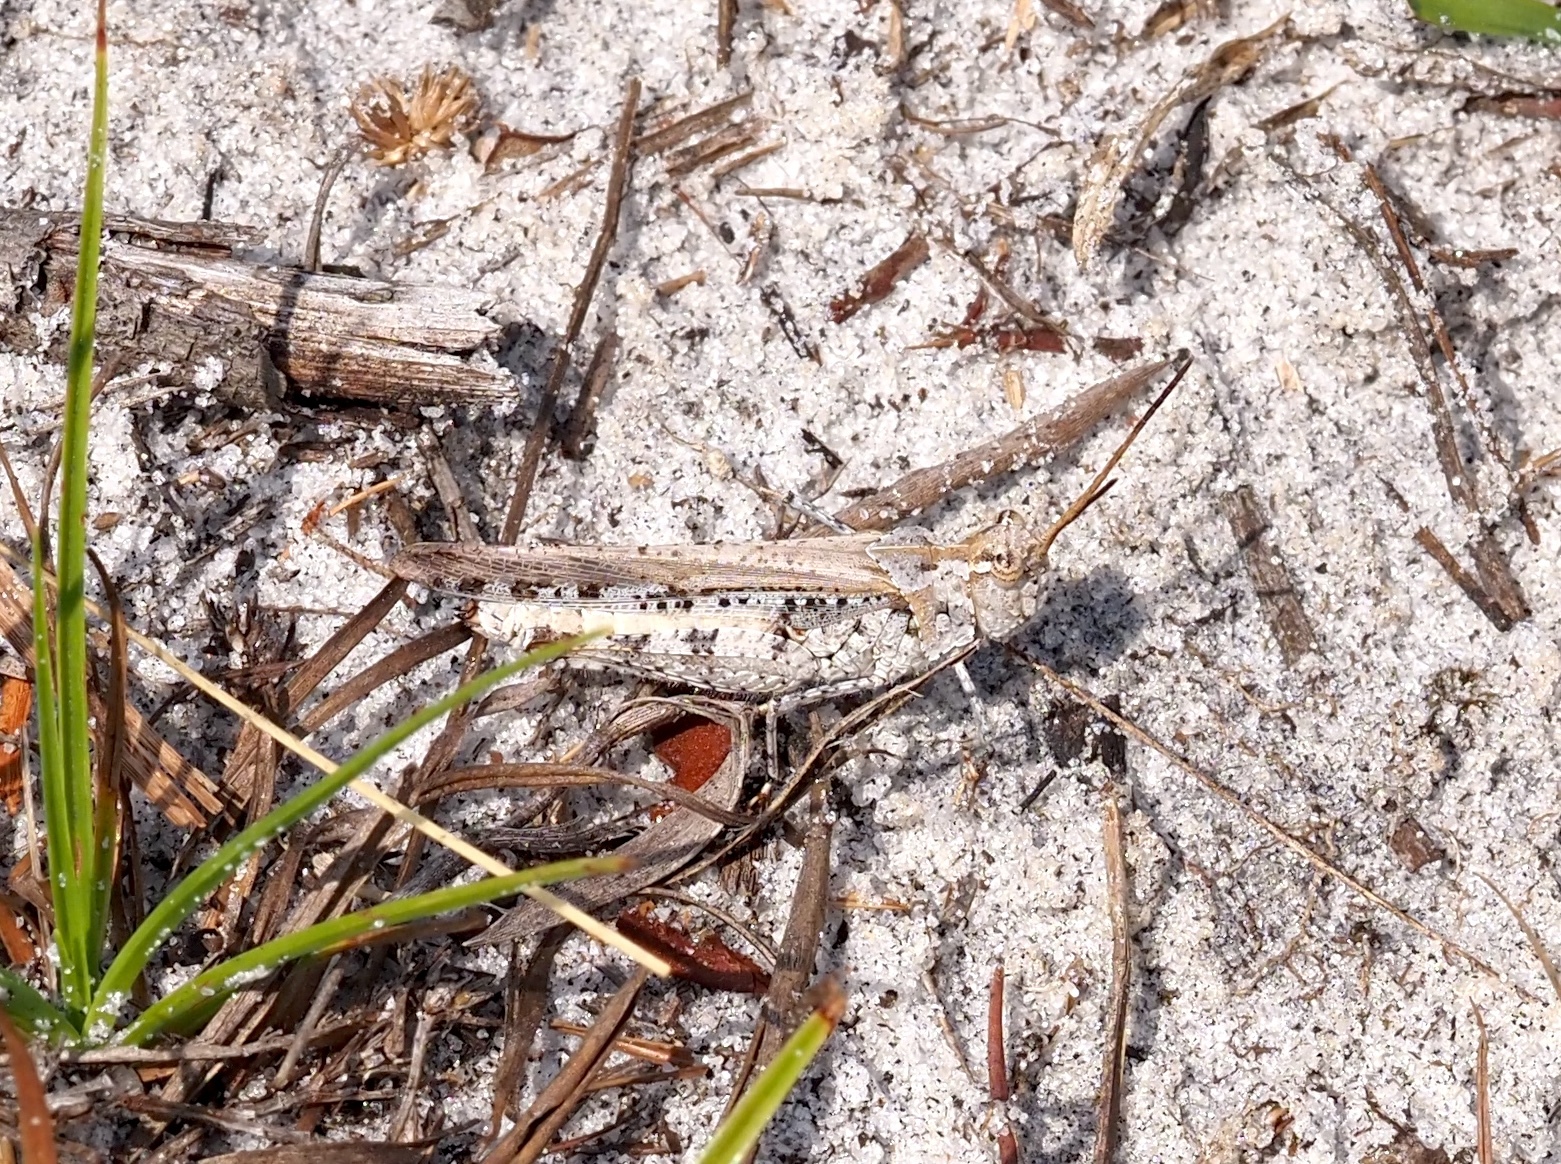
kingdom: Animalia
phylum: Arthropoda
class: Insecta
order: Orthoptera
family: Acrididae
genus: Psinidia
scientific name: Psinidia fenestralis
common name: Long-horned locust
